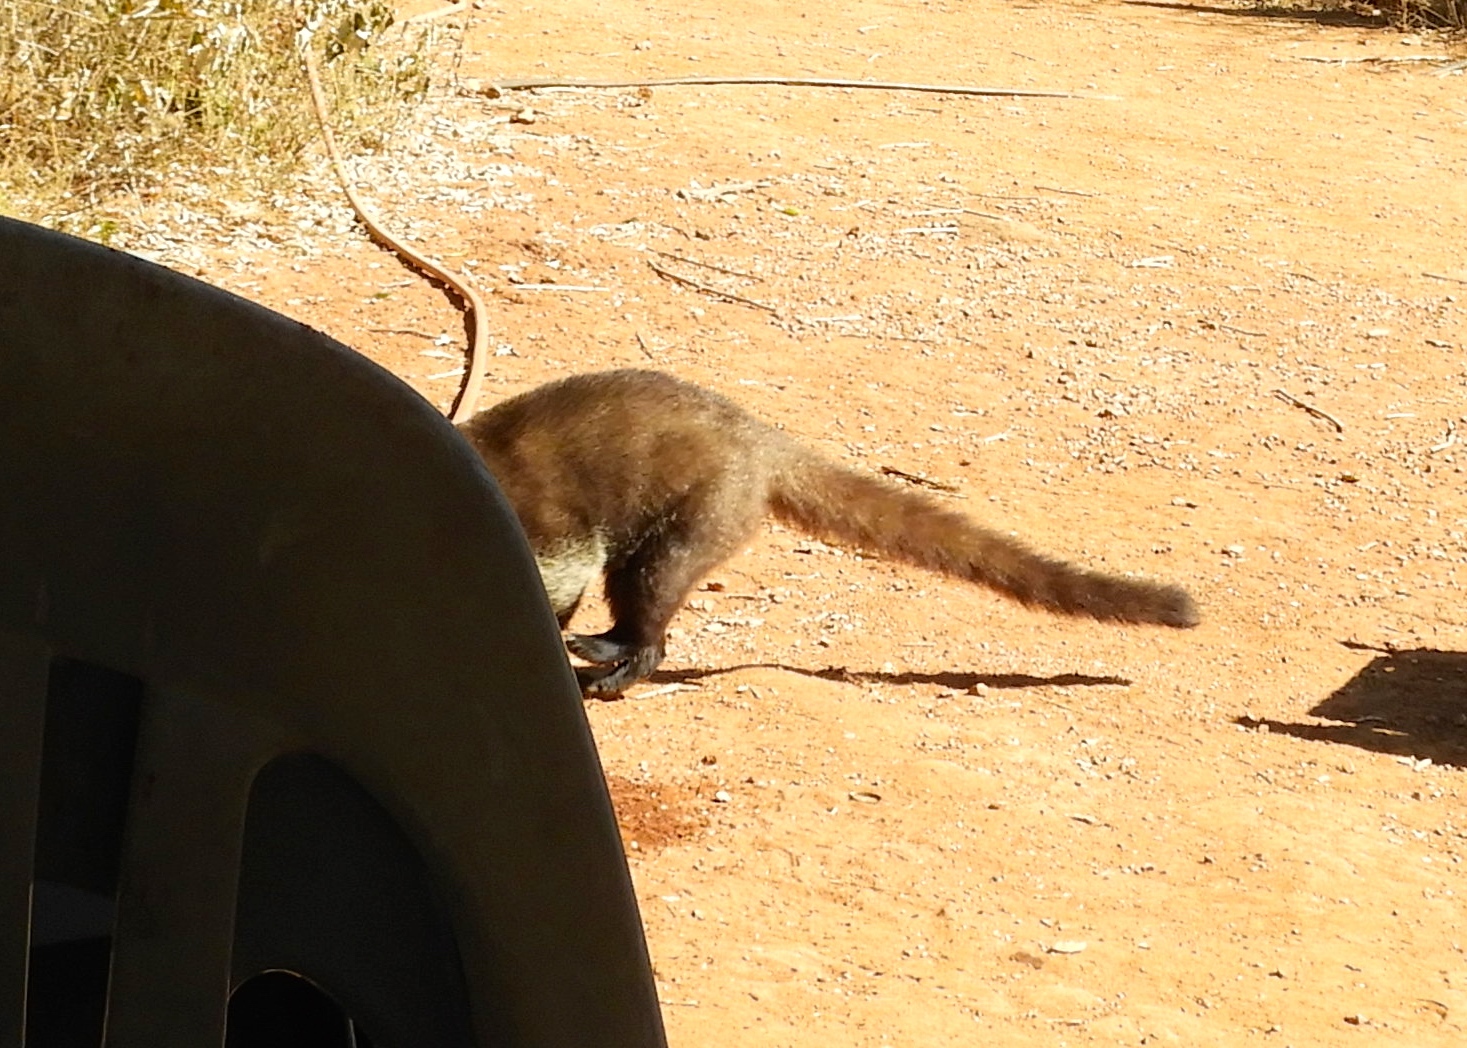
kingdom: Animalia
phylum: Chordata
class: Mammalia
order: Carnivora
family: Procyonidae
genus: Nasua
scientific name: Nasua narica
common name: White-nosed coati
